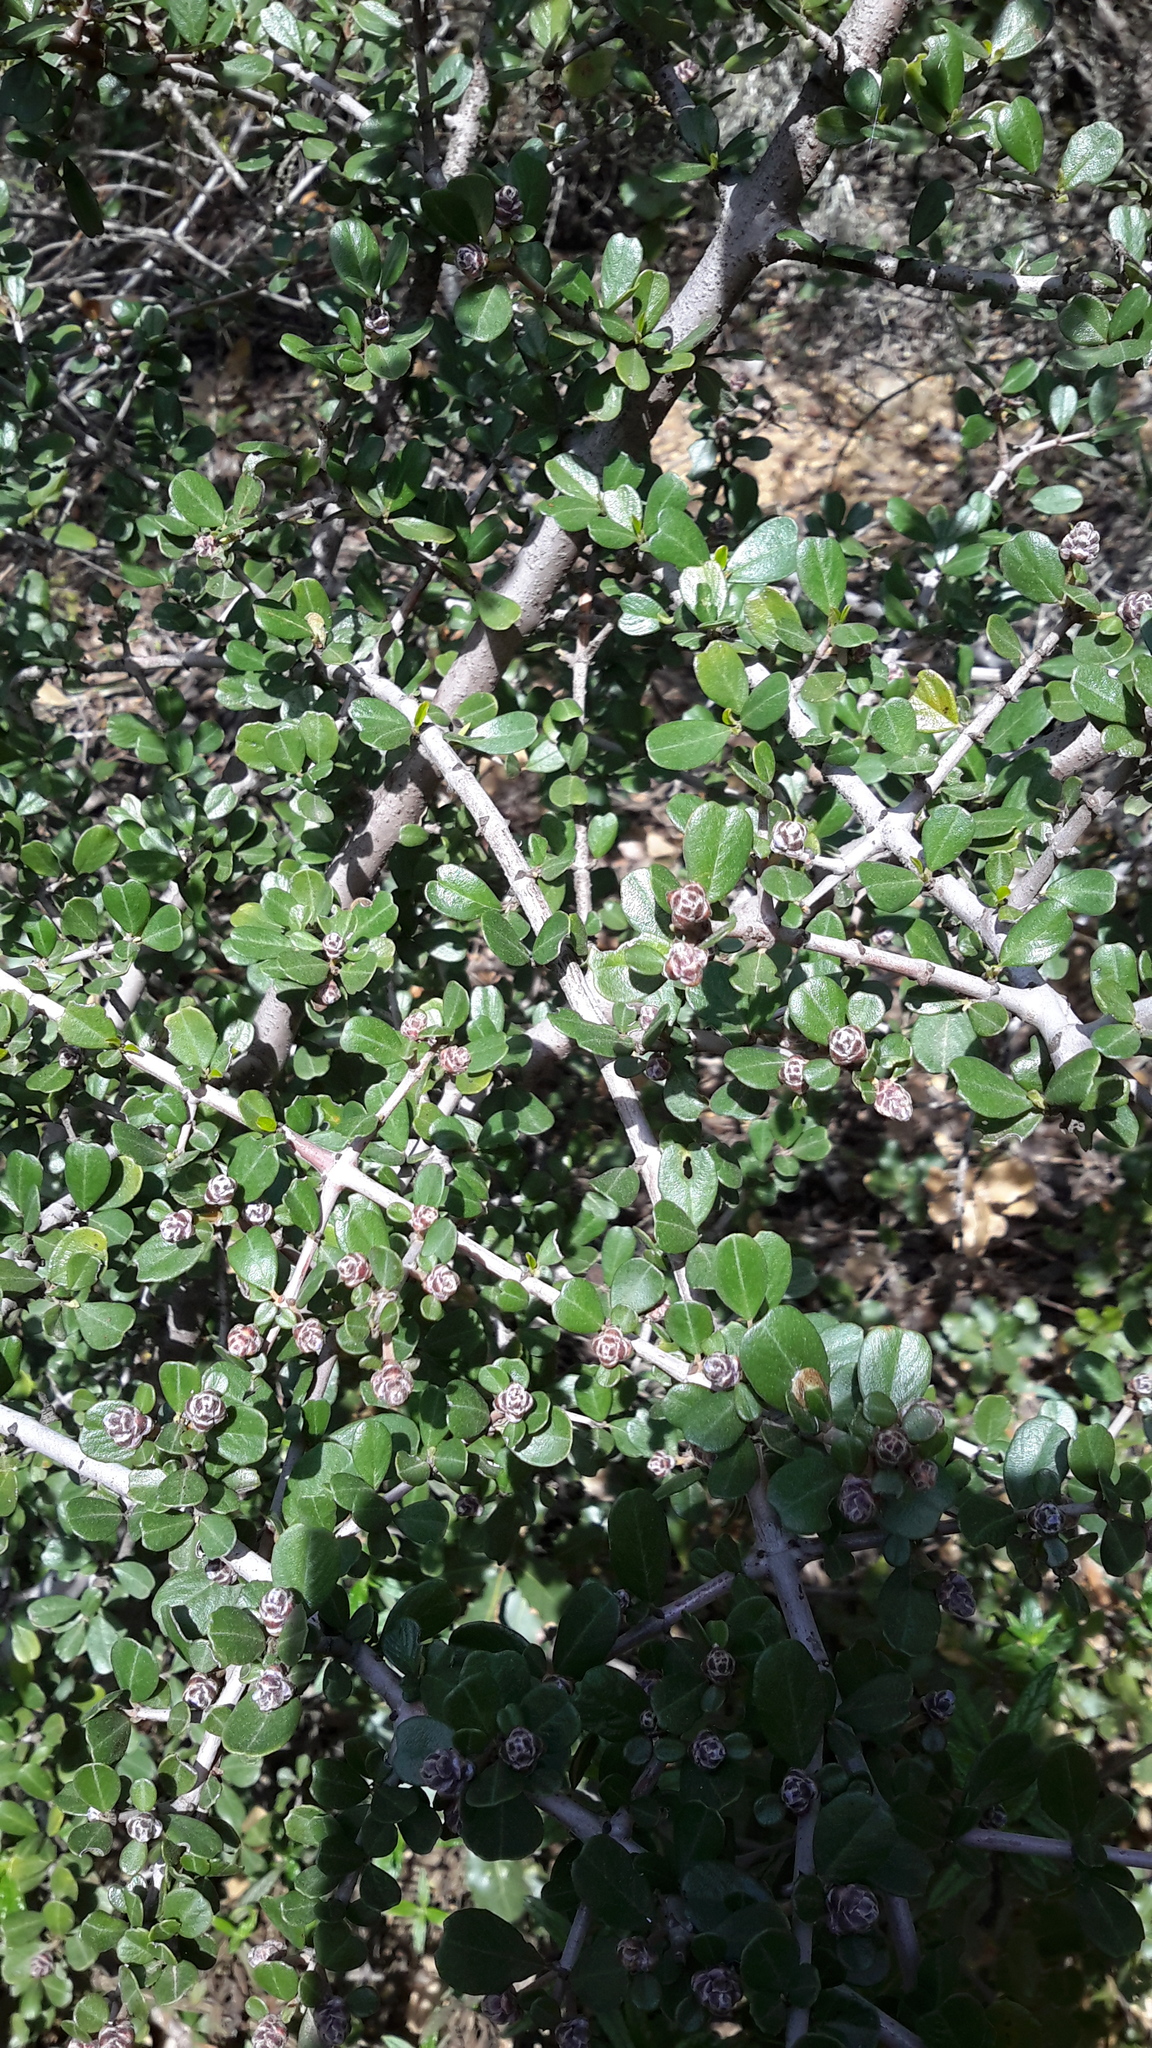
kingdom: Plantae
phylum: Tracheophyta
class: Magnoliopsida
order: Rosales
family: Rhamnaceae
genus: Ceanothus
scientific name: Ceanothus cuneatus
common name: Cuneate ceanothus
